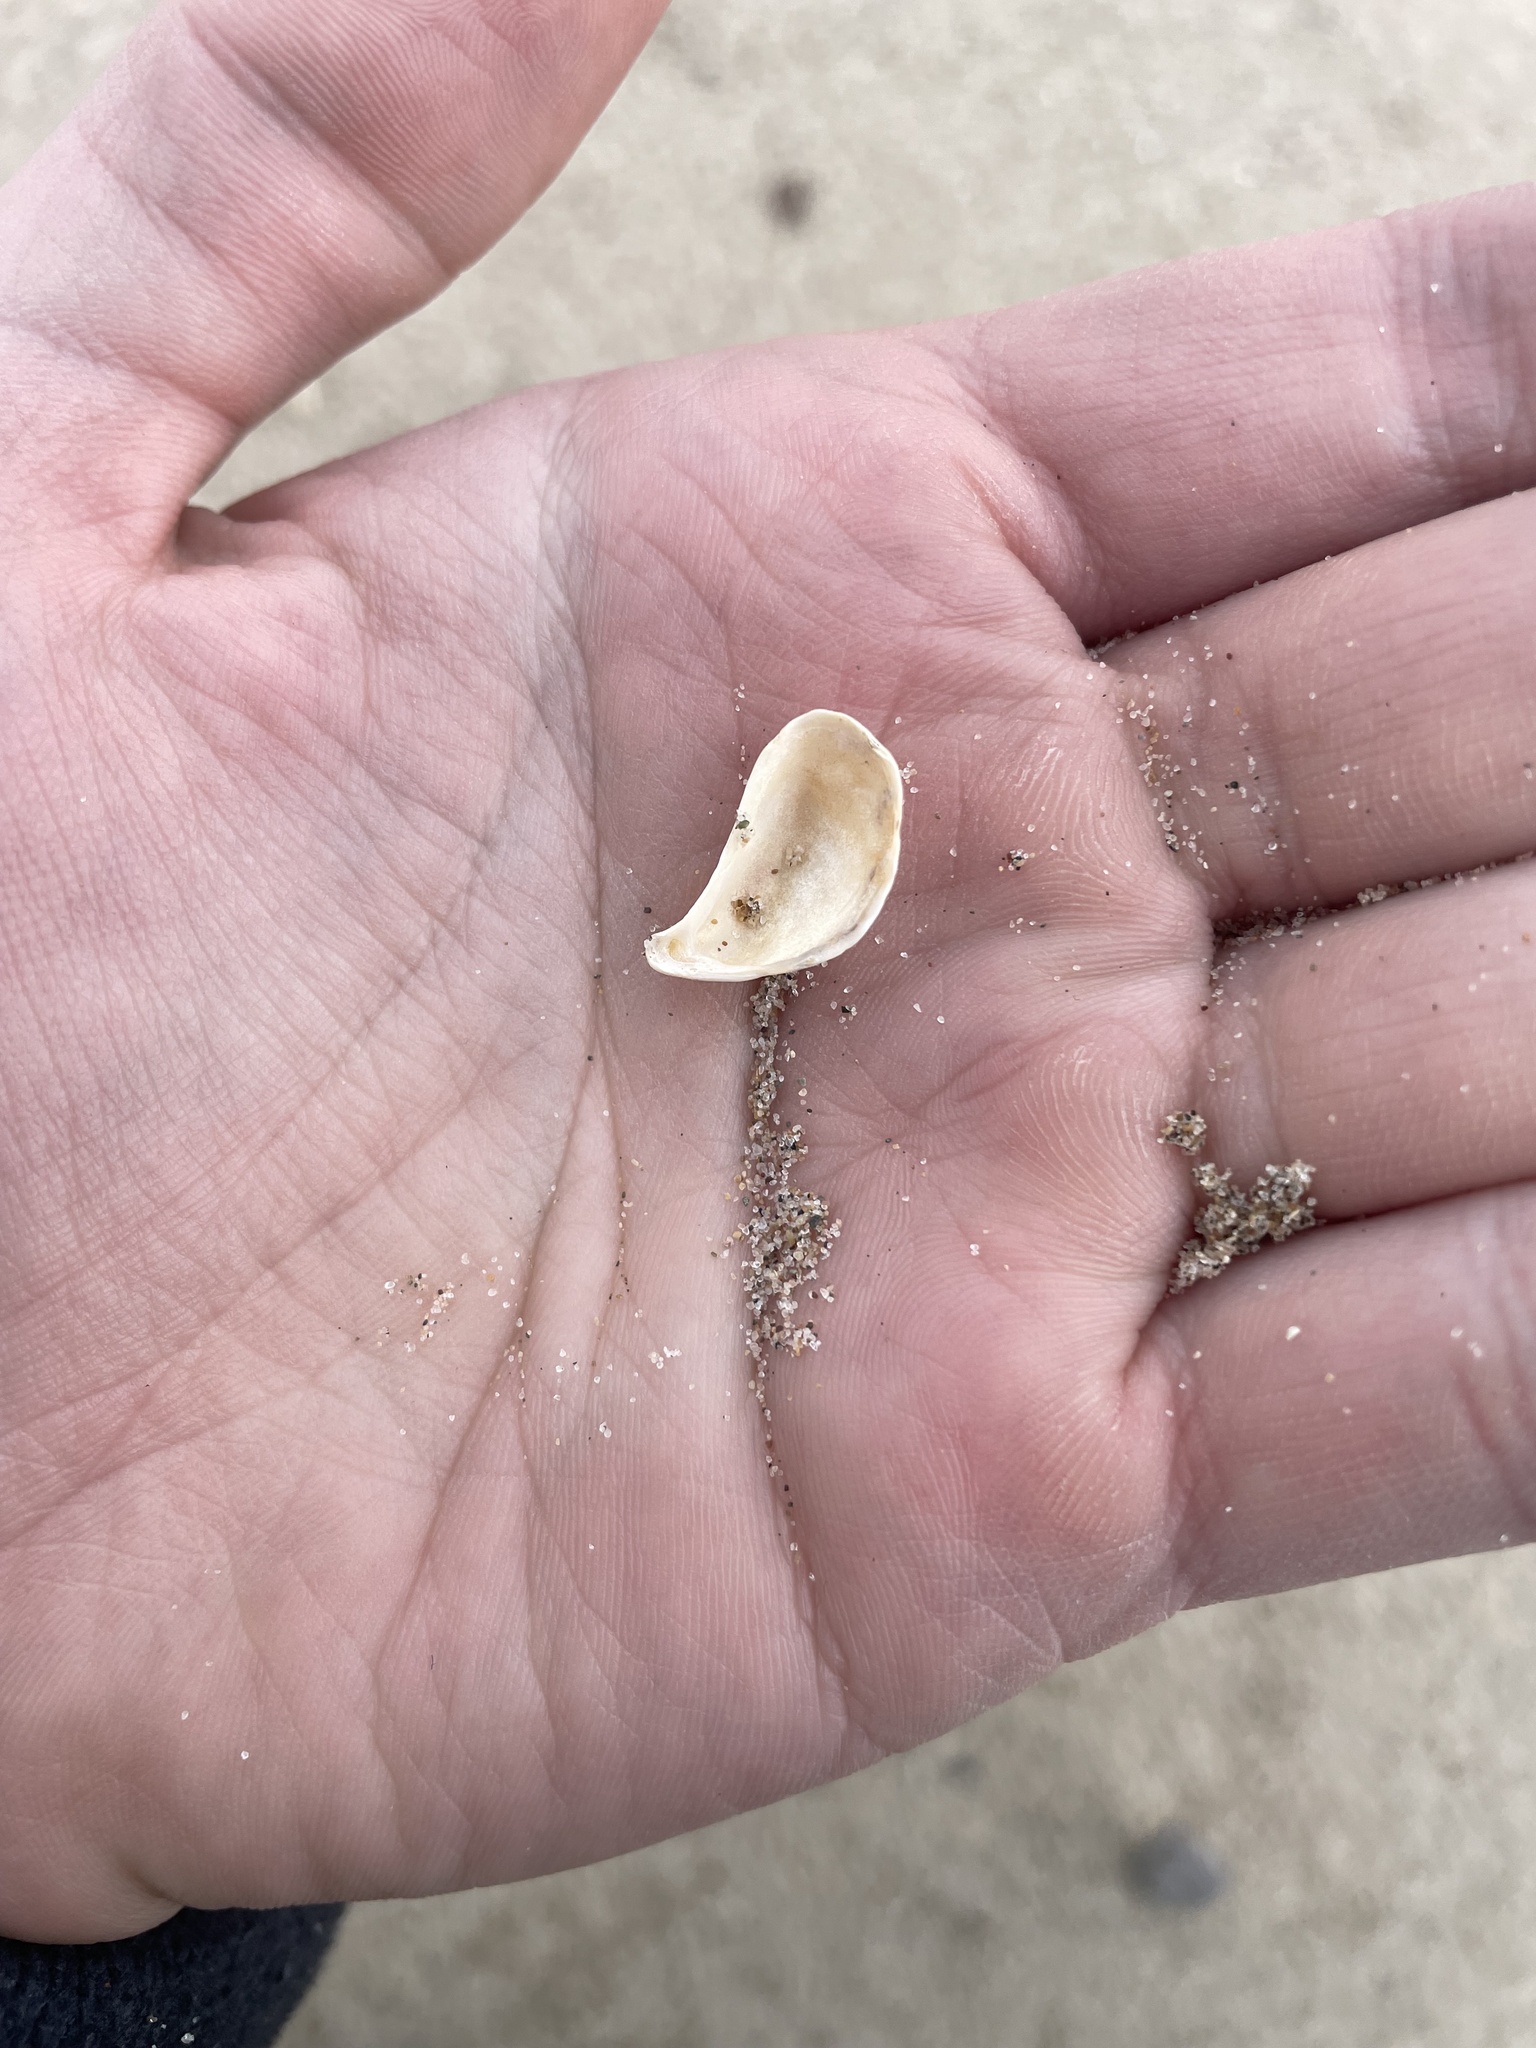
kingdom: Animalia
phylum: Mollusca
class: Bivalvia
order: Myida
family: Dreissenidae
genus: Dreissena
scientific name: Dreissena bugensis
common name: Quagga mussel
